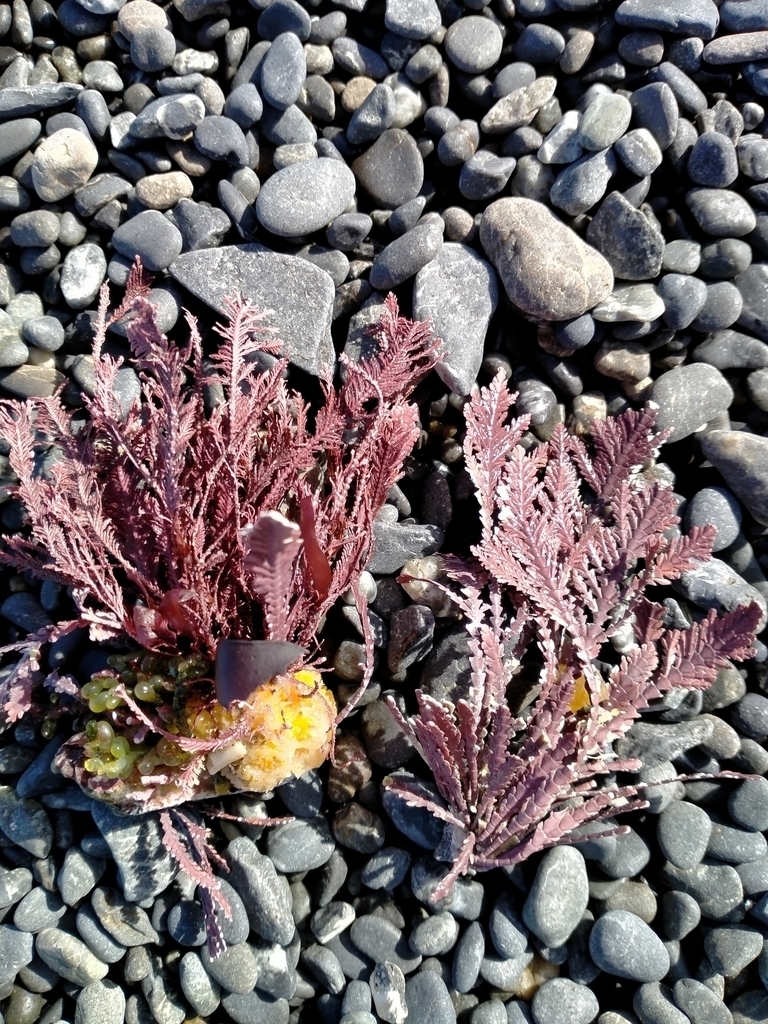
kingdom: Plantae
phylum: Rhodophyta
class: Florideophyceae
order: Corallinales
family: Corallinaceae
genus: Jania
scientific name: Jania rosea
